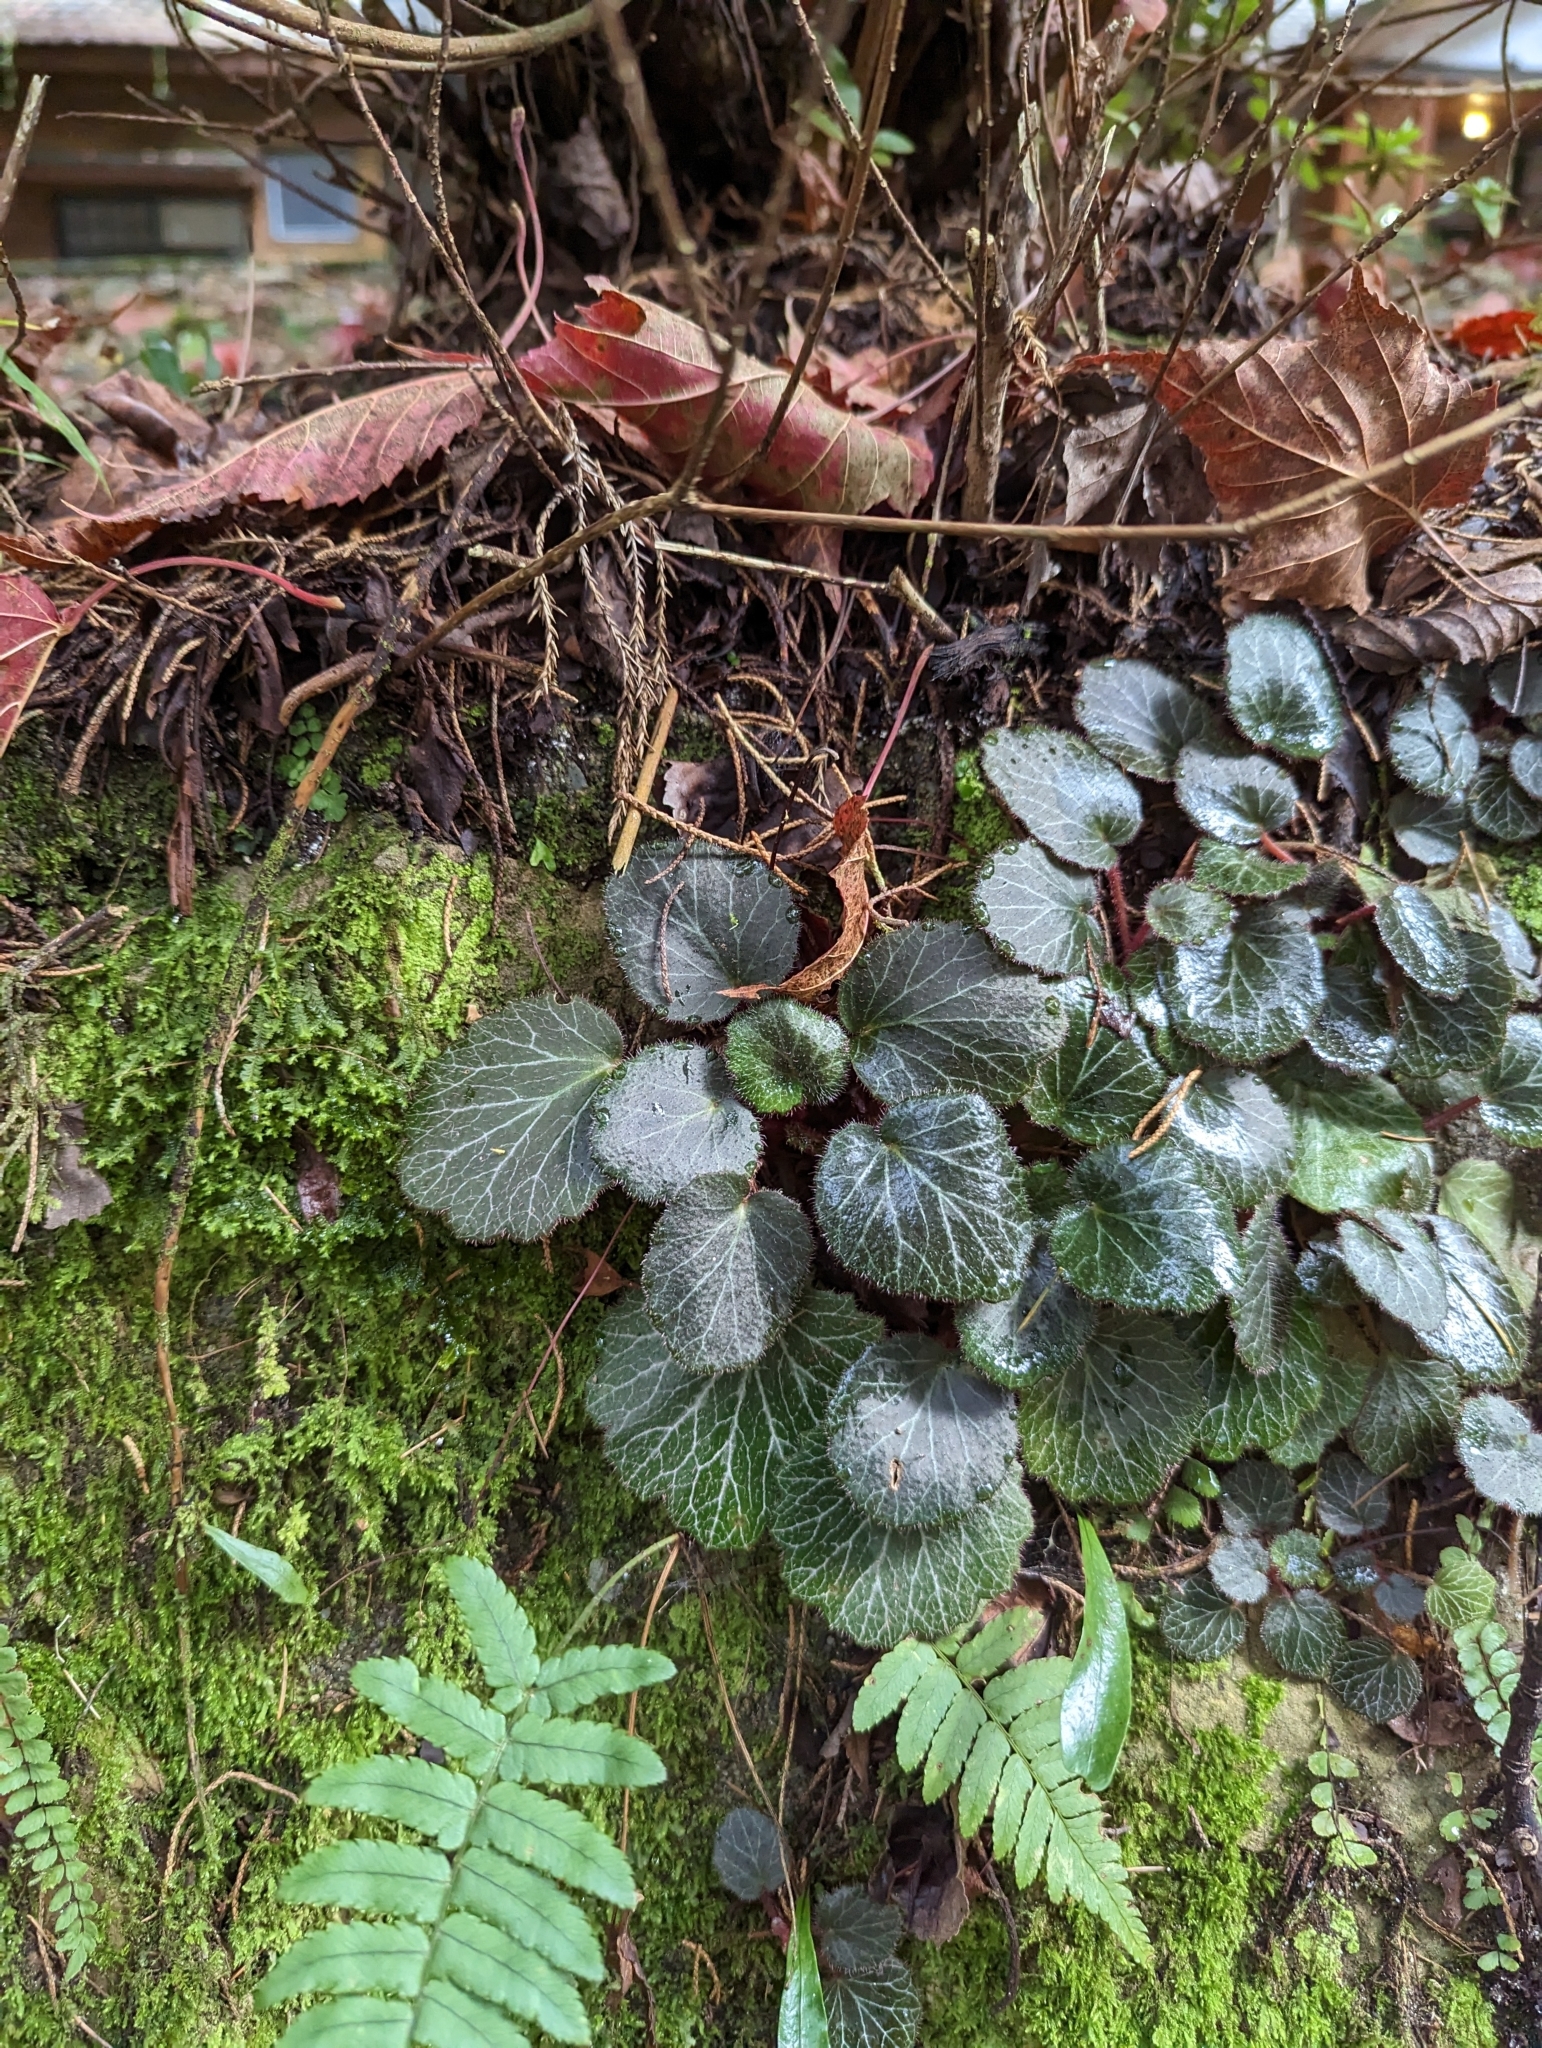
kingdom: Plantae
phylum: Tracheophyta
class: Magnoliopsida
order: Saxifragales
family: Saxifragaceae
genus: Saxifraga
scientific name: Saxifraga stolonifera
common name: Creeping saxifrage
